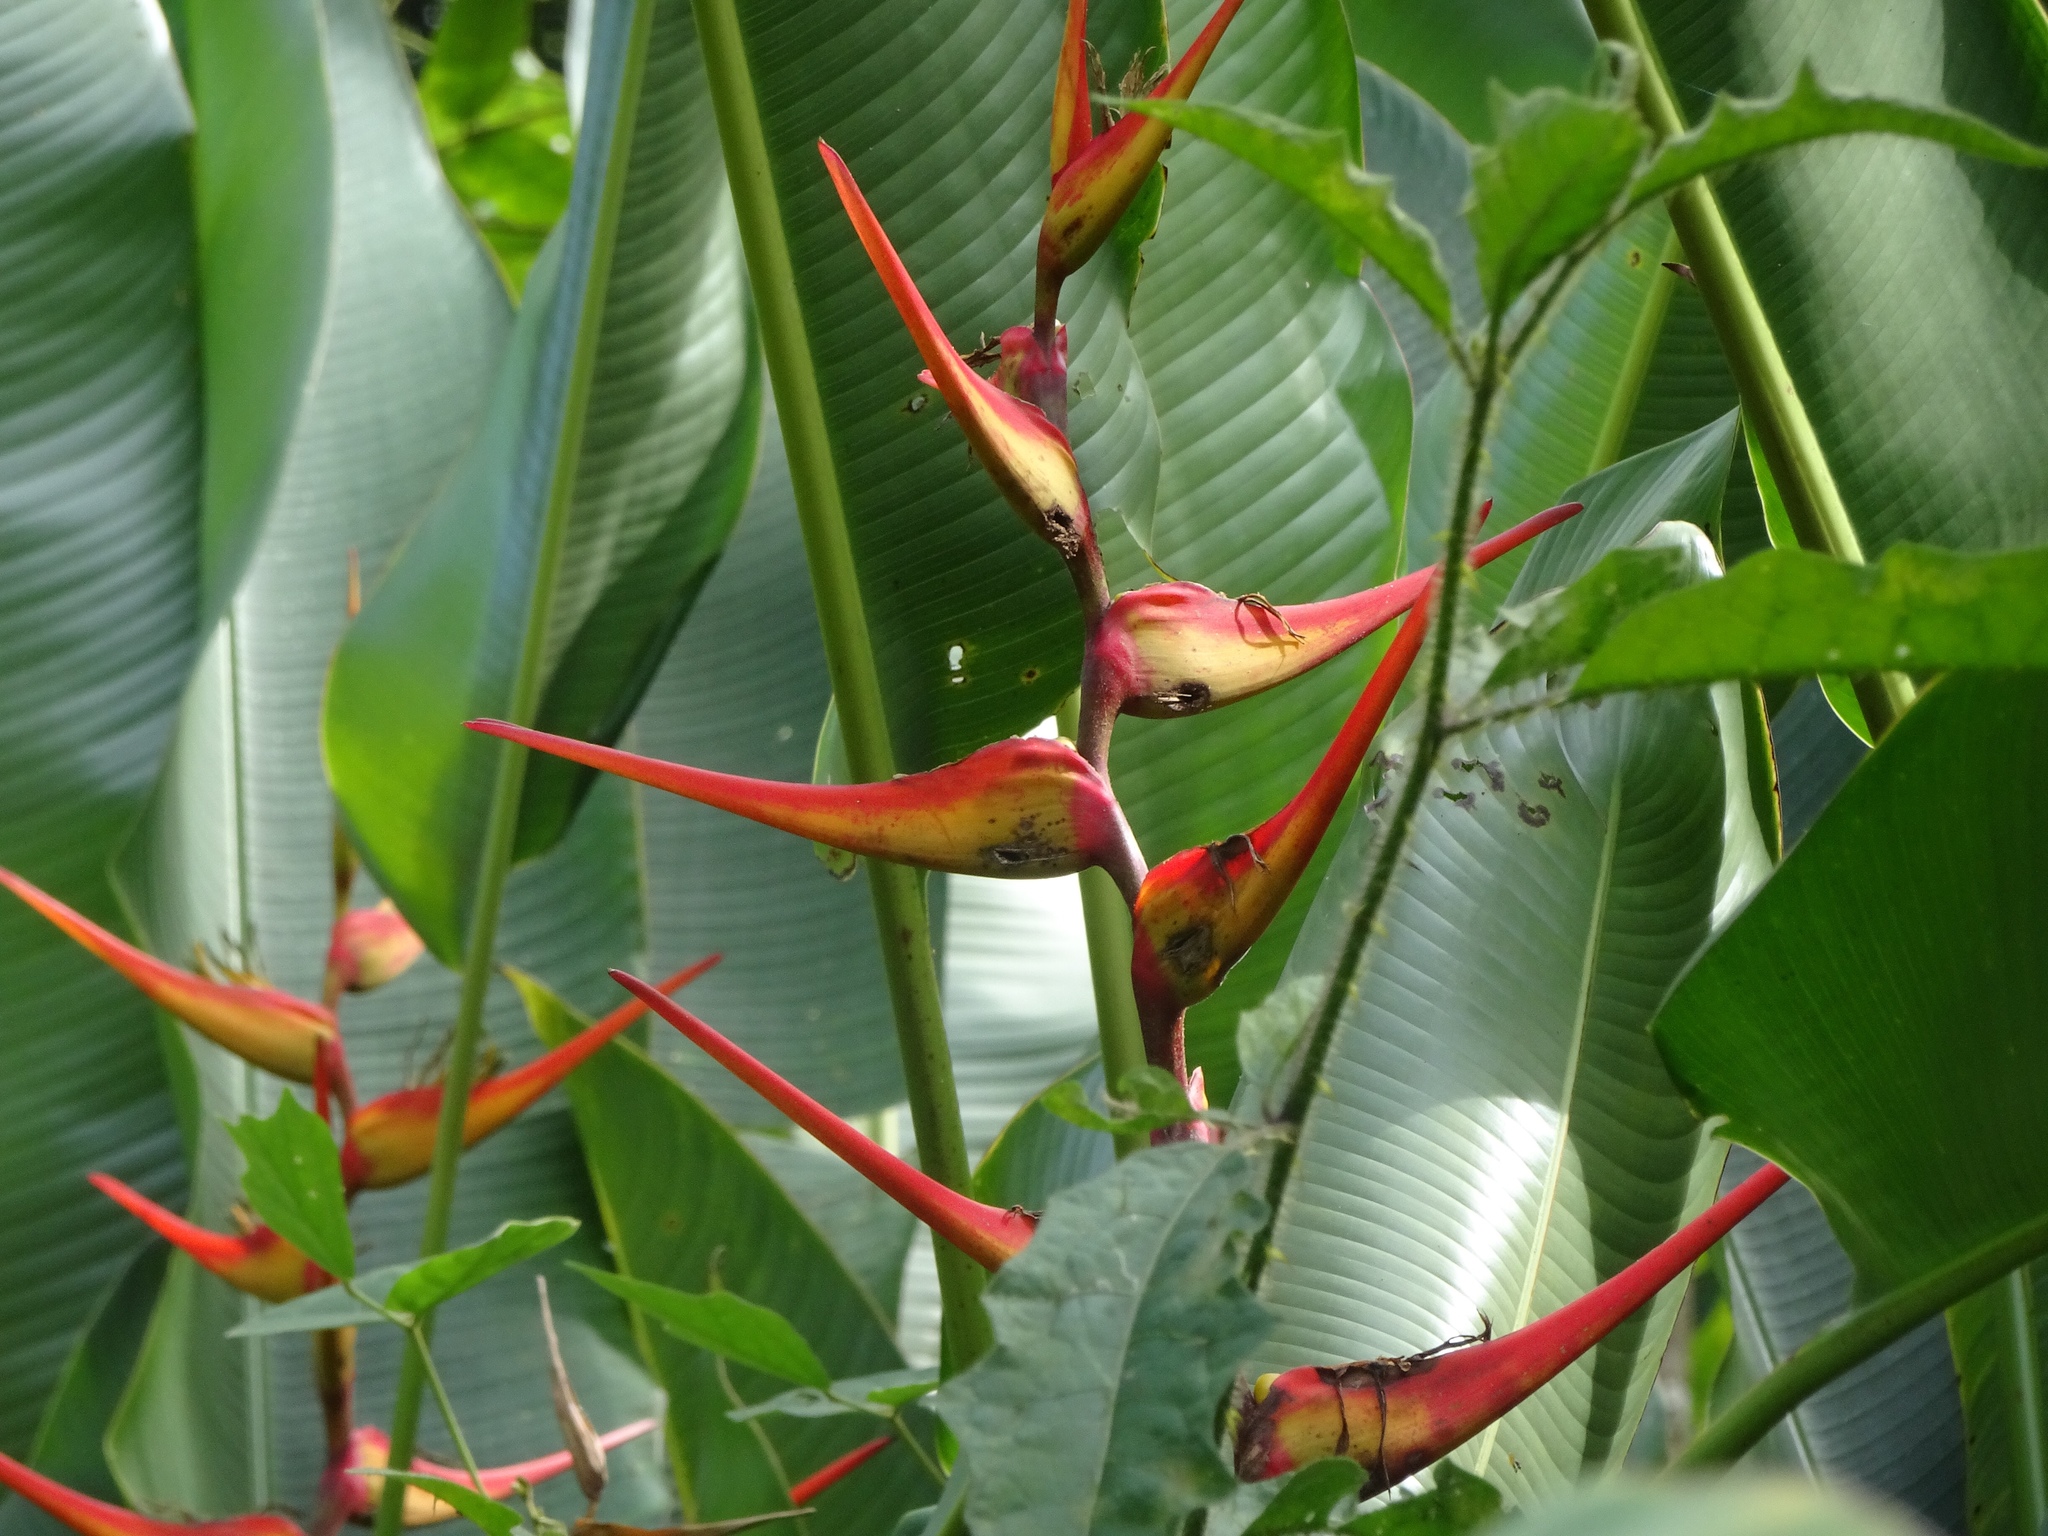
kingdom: Plantae
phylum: Tracheophyta
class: Liliopsida
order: Zingiberales
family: Heliconiaceae
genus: Heliconia
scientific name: Heliconia latispatha
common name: Expanded lobsterclaw
